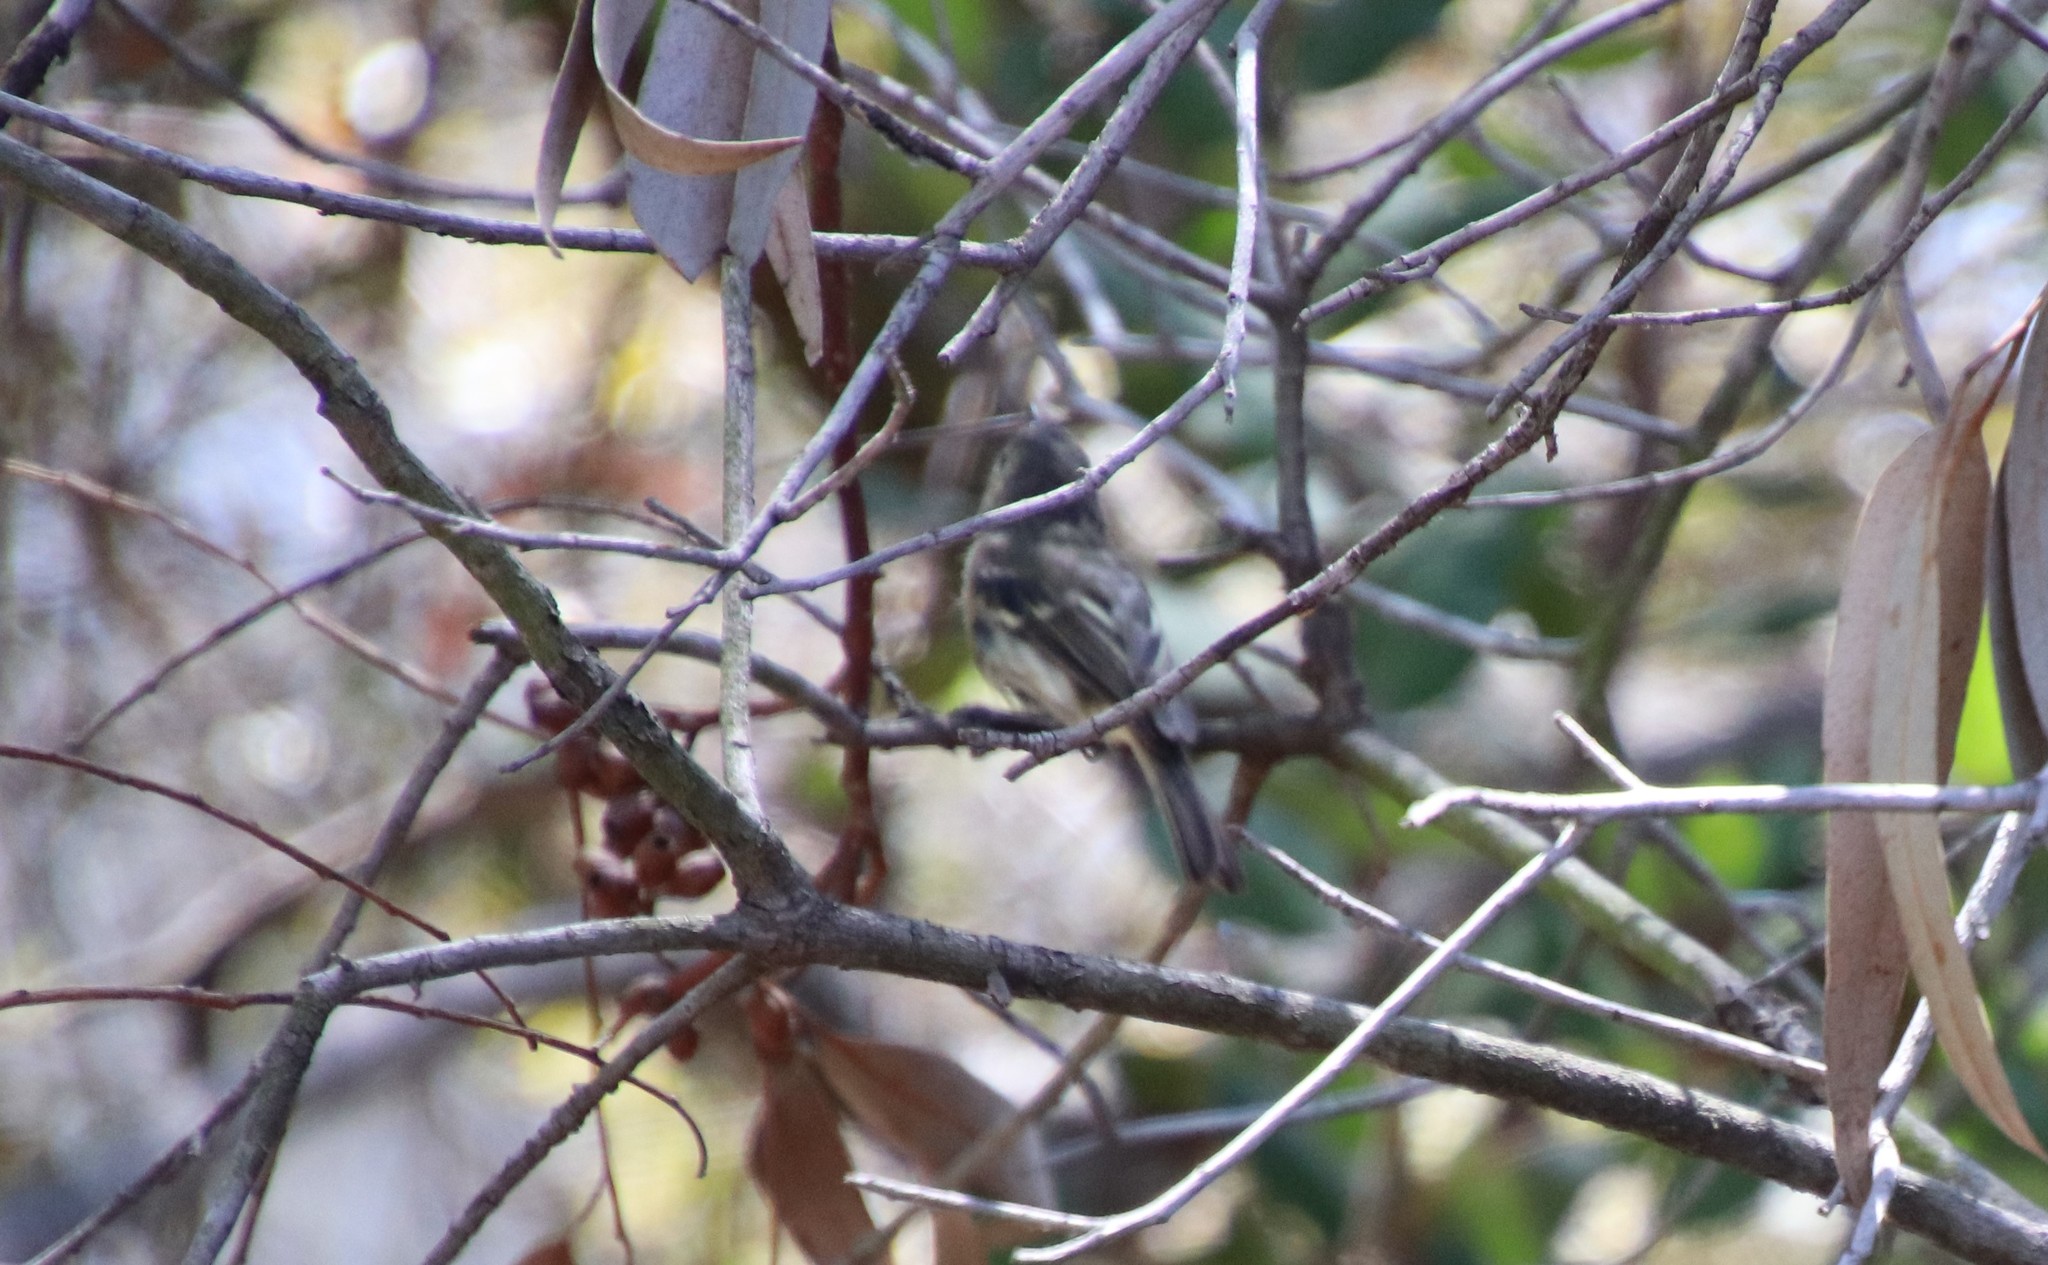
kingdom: Animalia
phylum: Chordata
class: Aves
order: Passeriformes
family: Vireonidae
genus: Vireo
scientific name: Vireo huttoni
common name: Hutton's vireo
